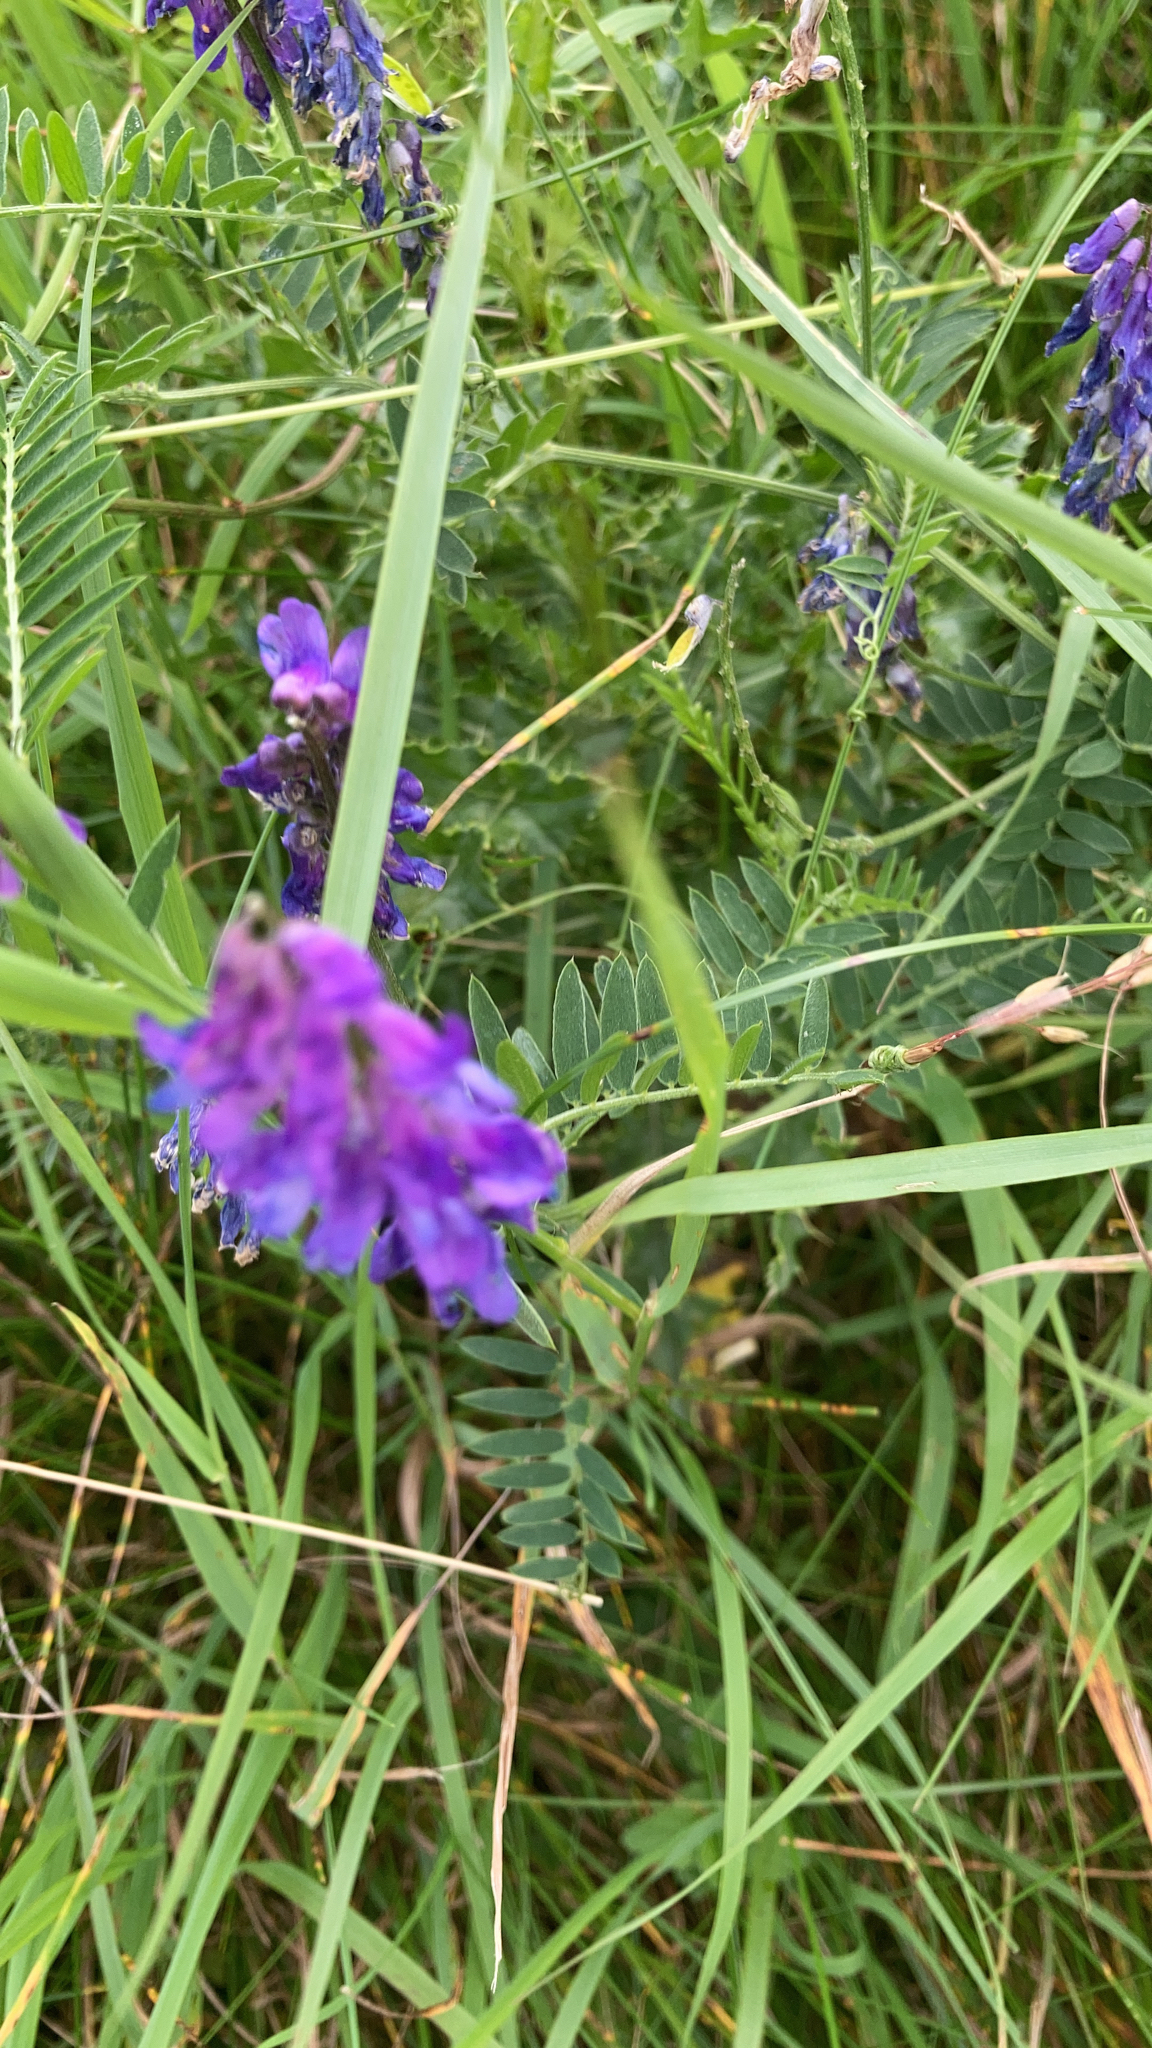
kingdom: Plantae
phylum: Tracheophyta
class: Magnoliopsida
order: Fabales
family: Fabaceae
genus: Vicia
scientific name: Vicia cracca
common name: Bird vetch
